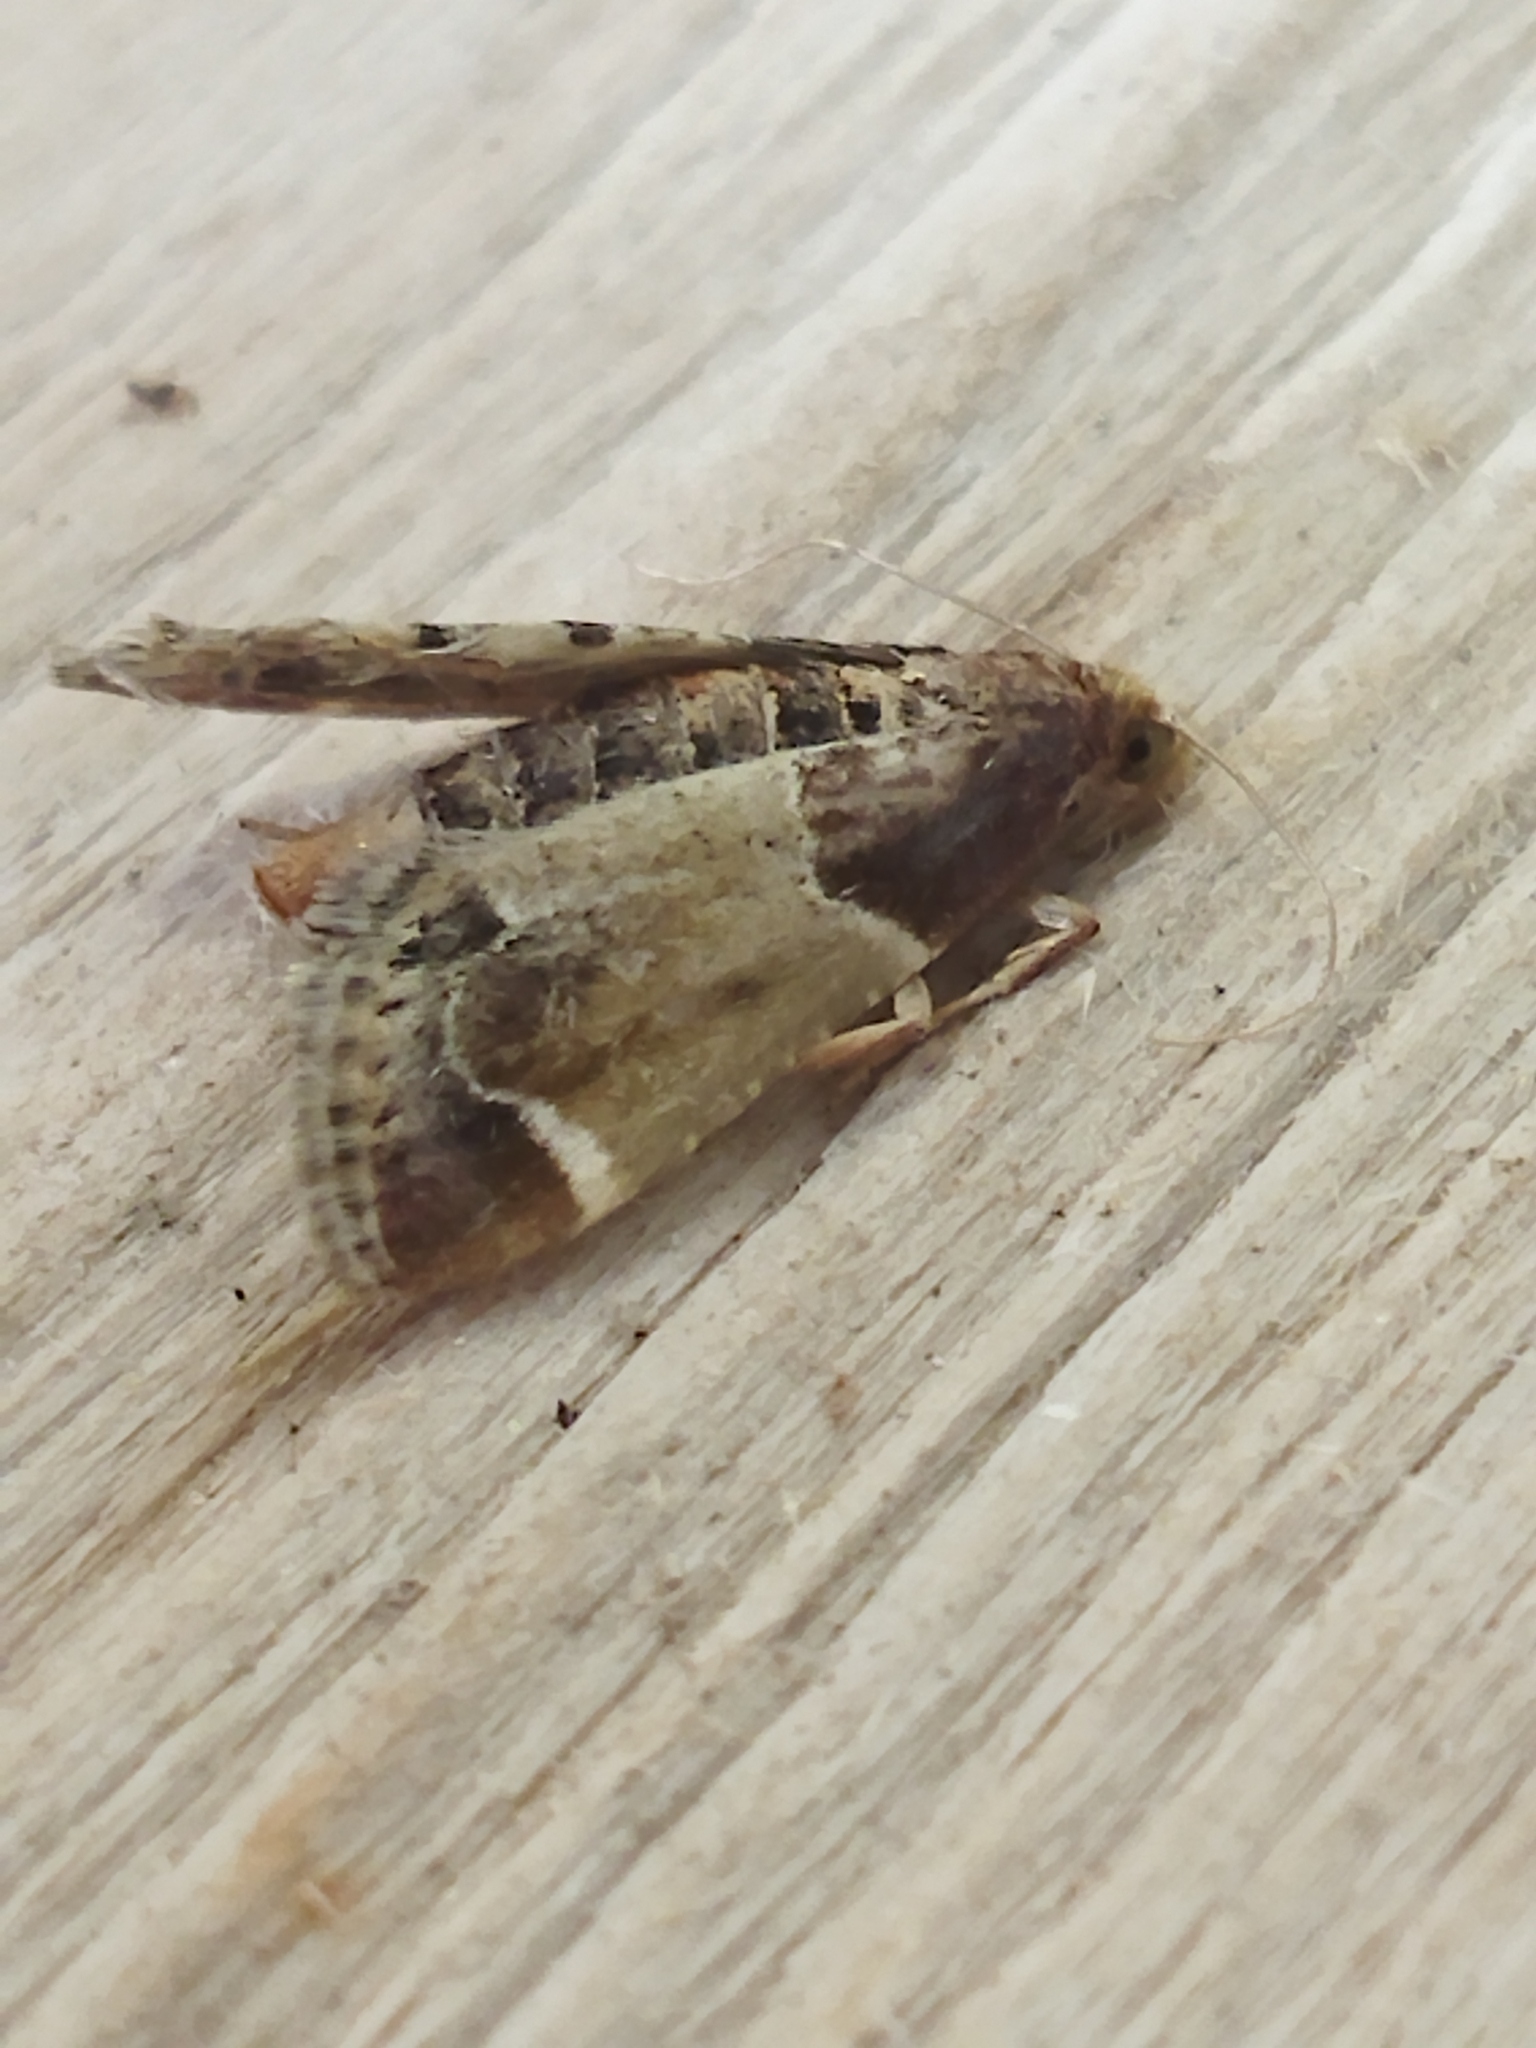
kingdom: Animalia
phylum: Arthropoda
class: Insecta
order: Lepidoptera
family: Pyralidae
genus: Pyralis
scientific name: Pyralis farinalis
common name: Meal moth
